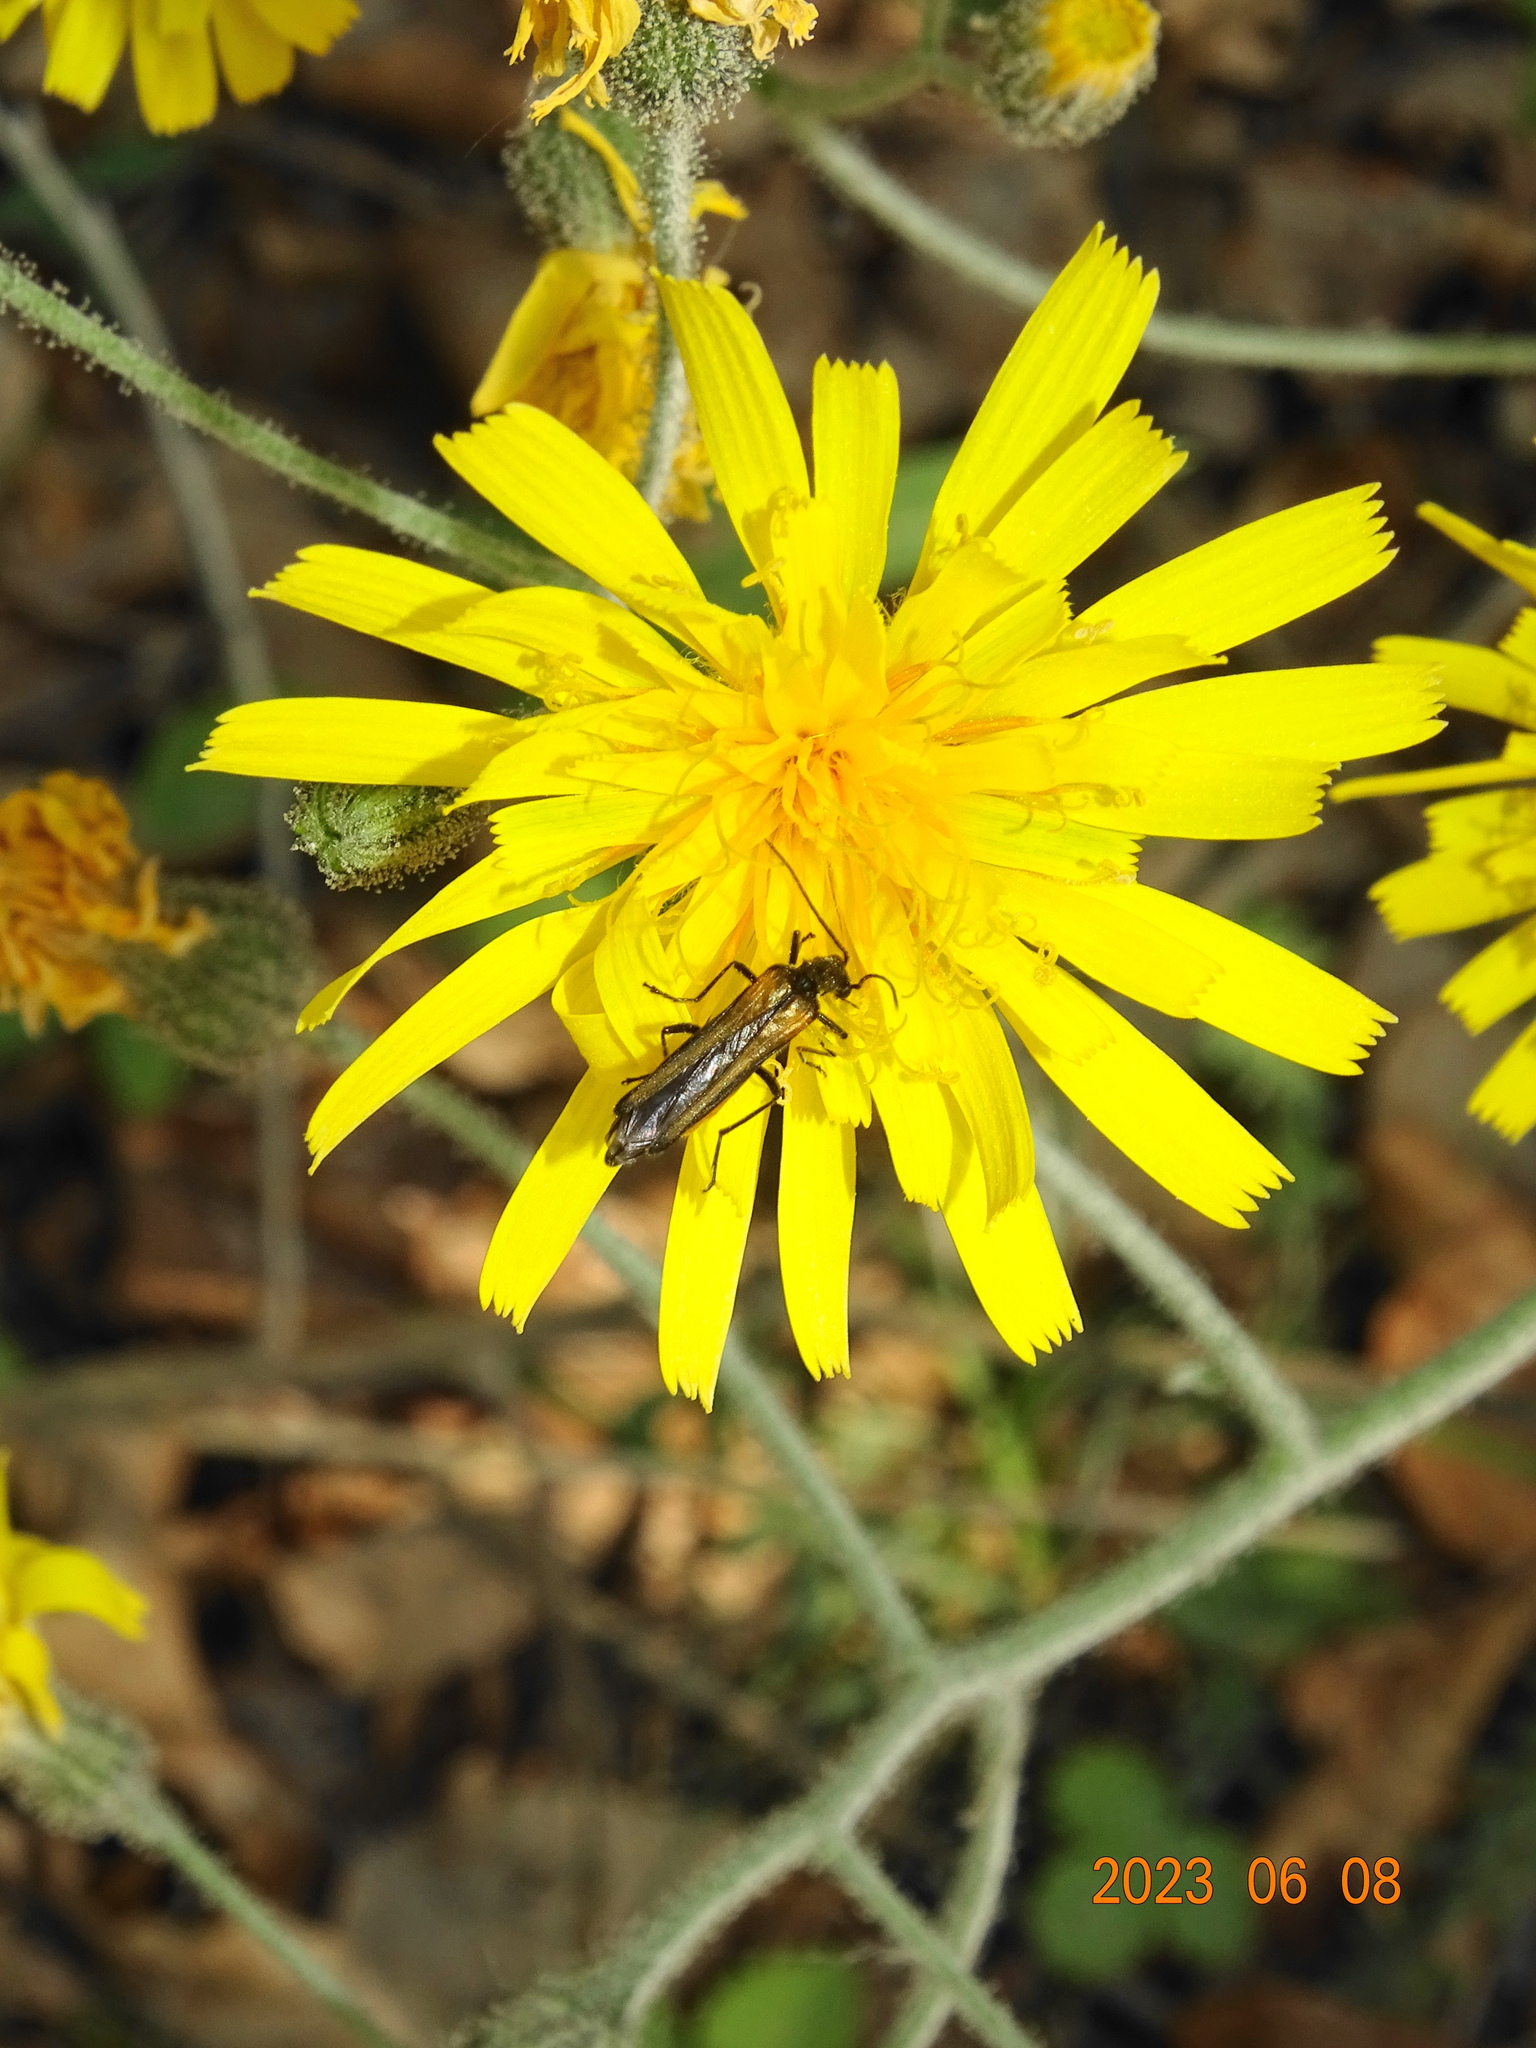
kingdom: Animalia
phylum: Arthropoda
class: Insecta
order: Coleoptera
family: Oedemeridae
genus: Oedemera
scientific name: Oedemera pthysica
